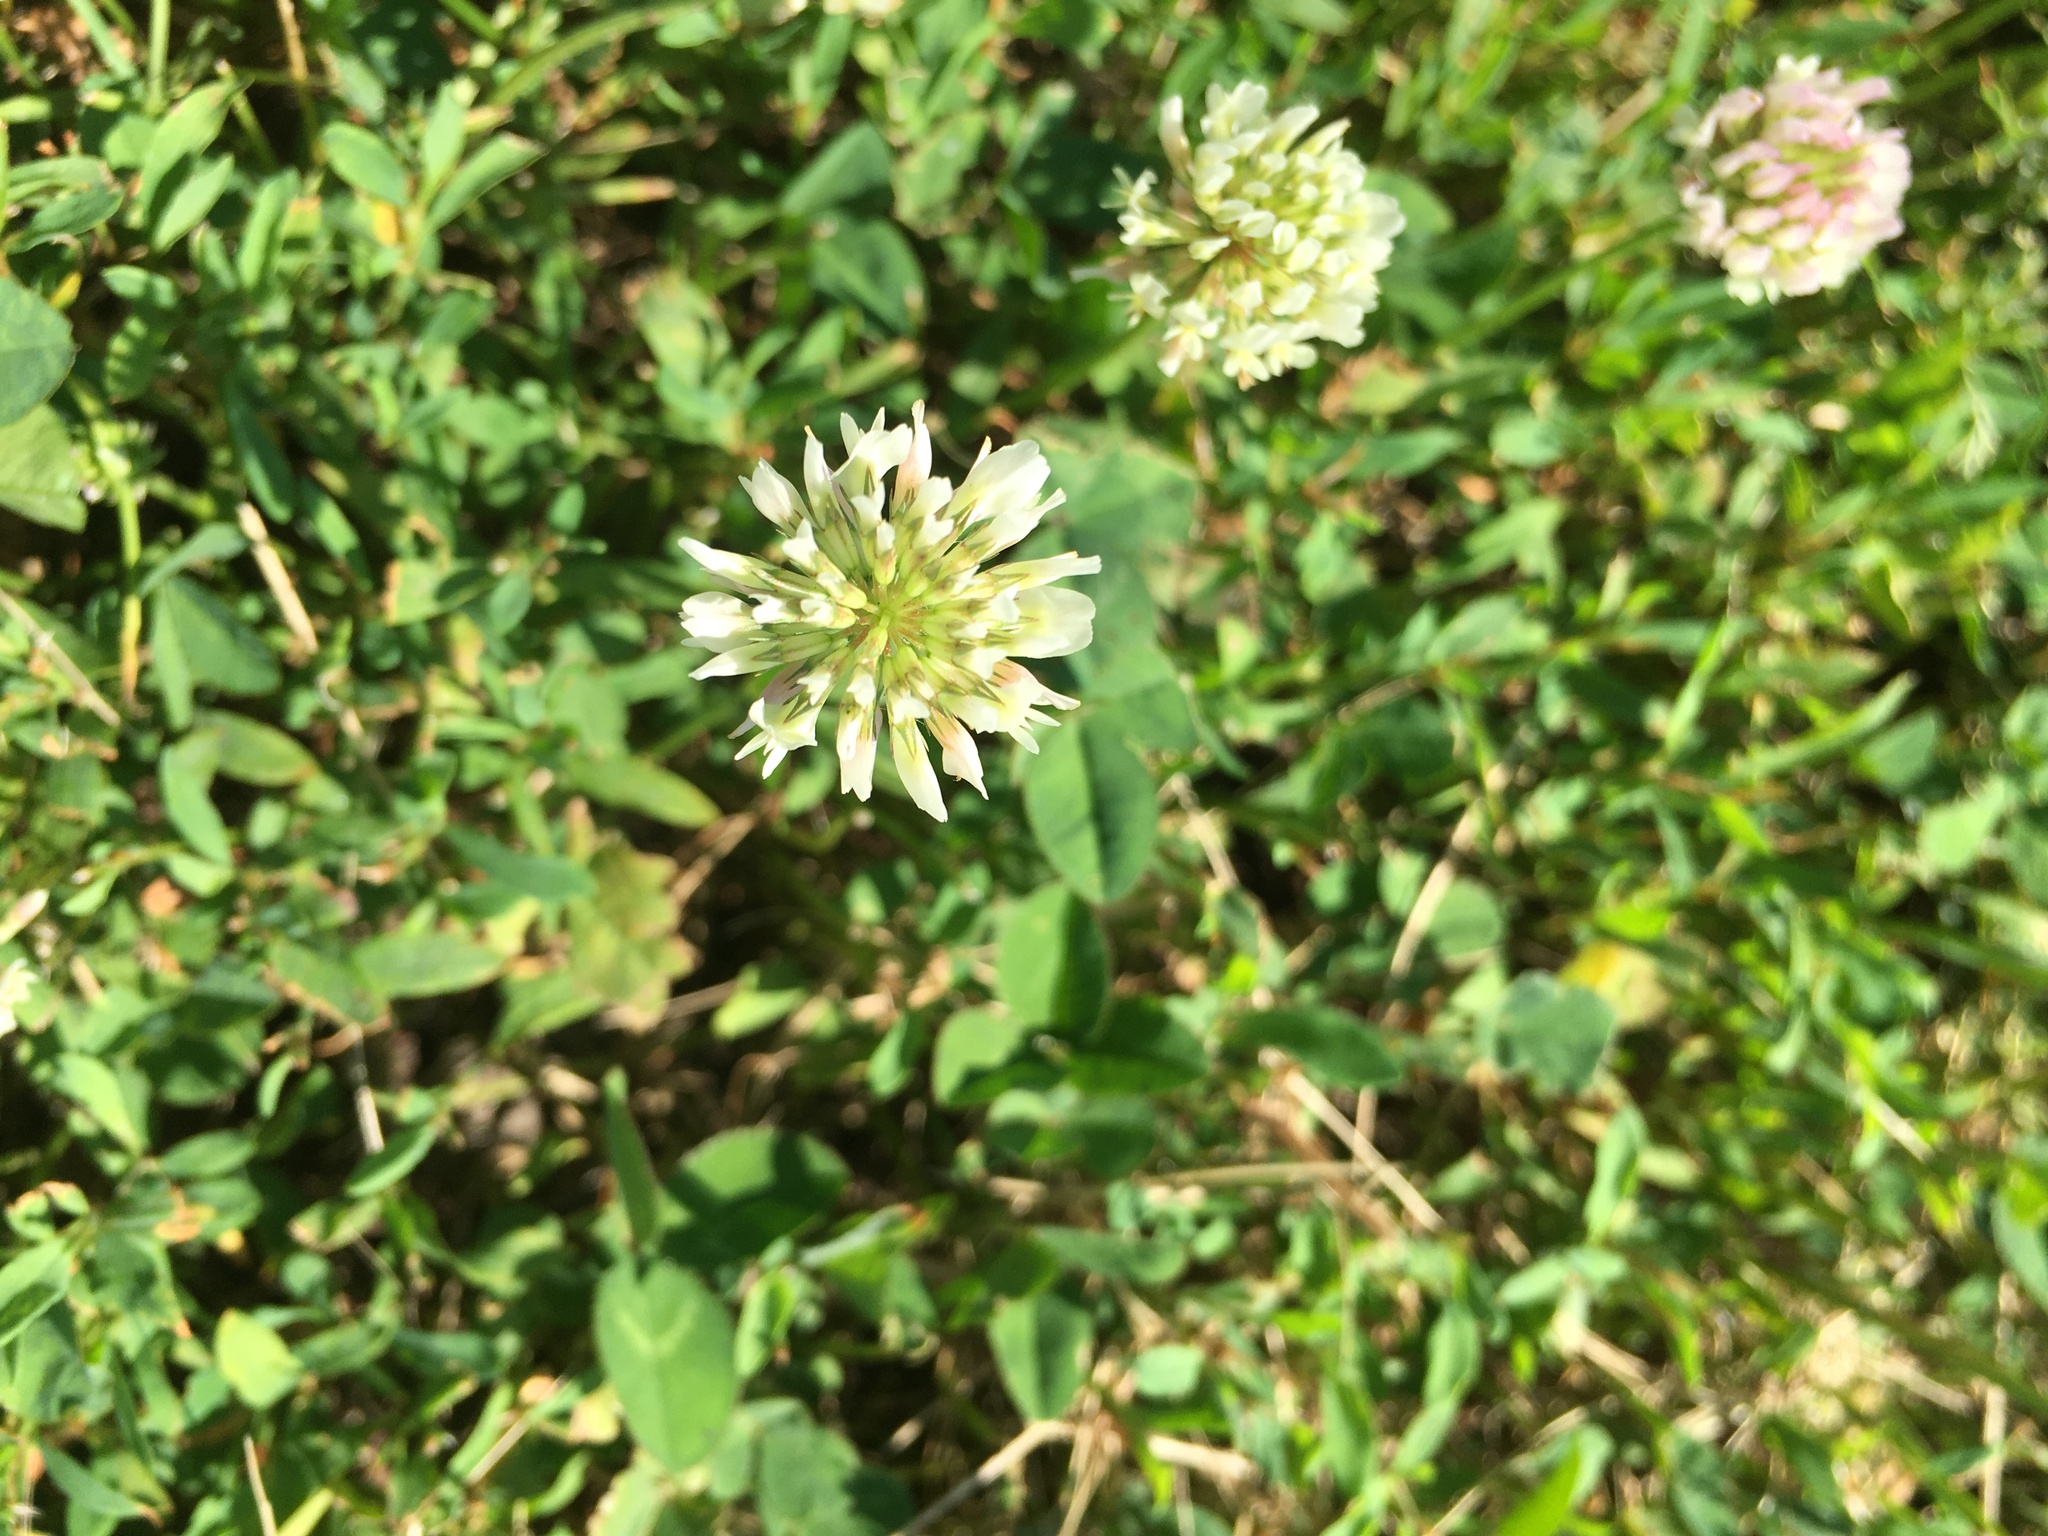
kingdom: Plantae
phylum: Tracheophyta
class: Magnoliopsida
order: Fabales
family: Fabaceae
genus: Trifolium
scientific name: Trifolium repens
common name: White clover
